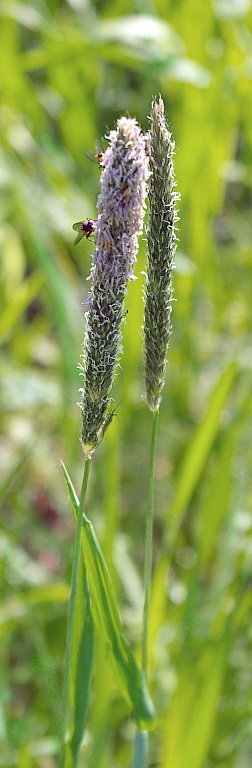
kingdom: Plantae
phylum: Tracheophyta
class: Liliopsida
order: Poales
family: Poaceae
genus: Alopecurus
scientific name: Alopecurus pratensis
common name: Meadow foxtail
